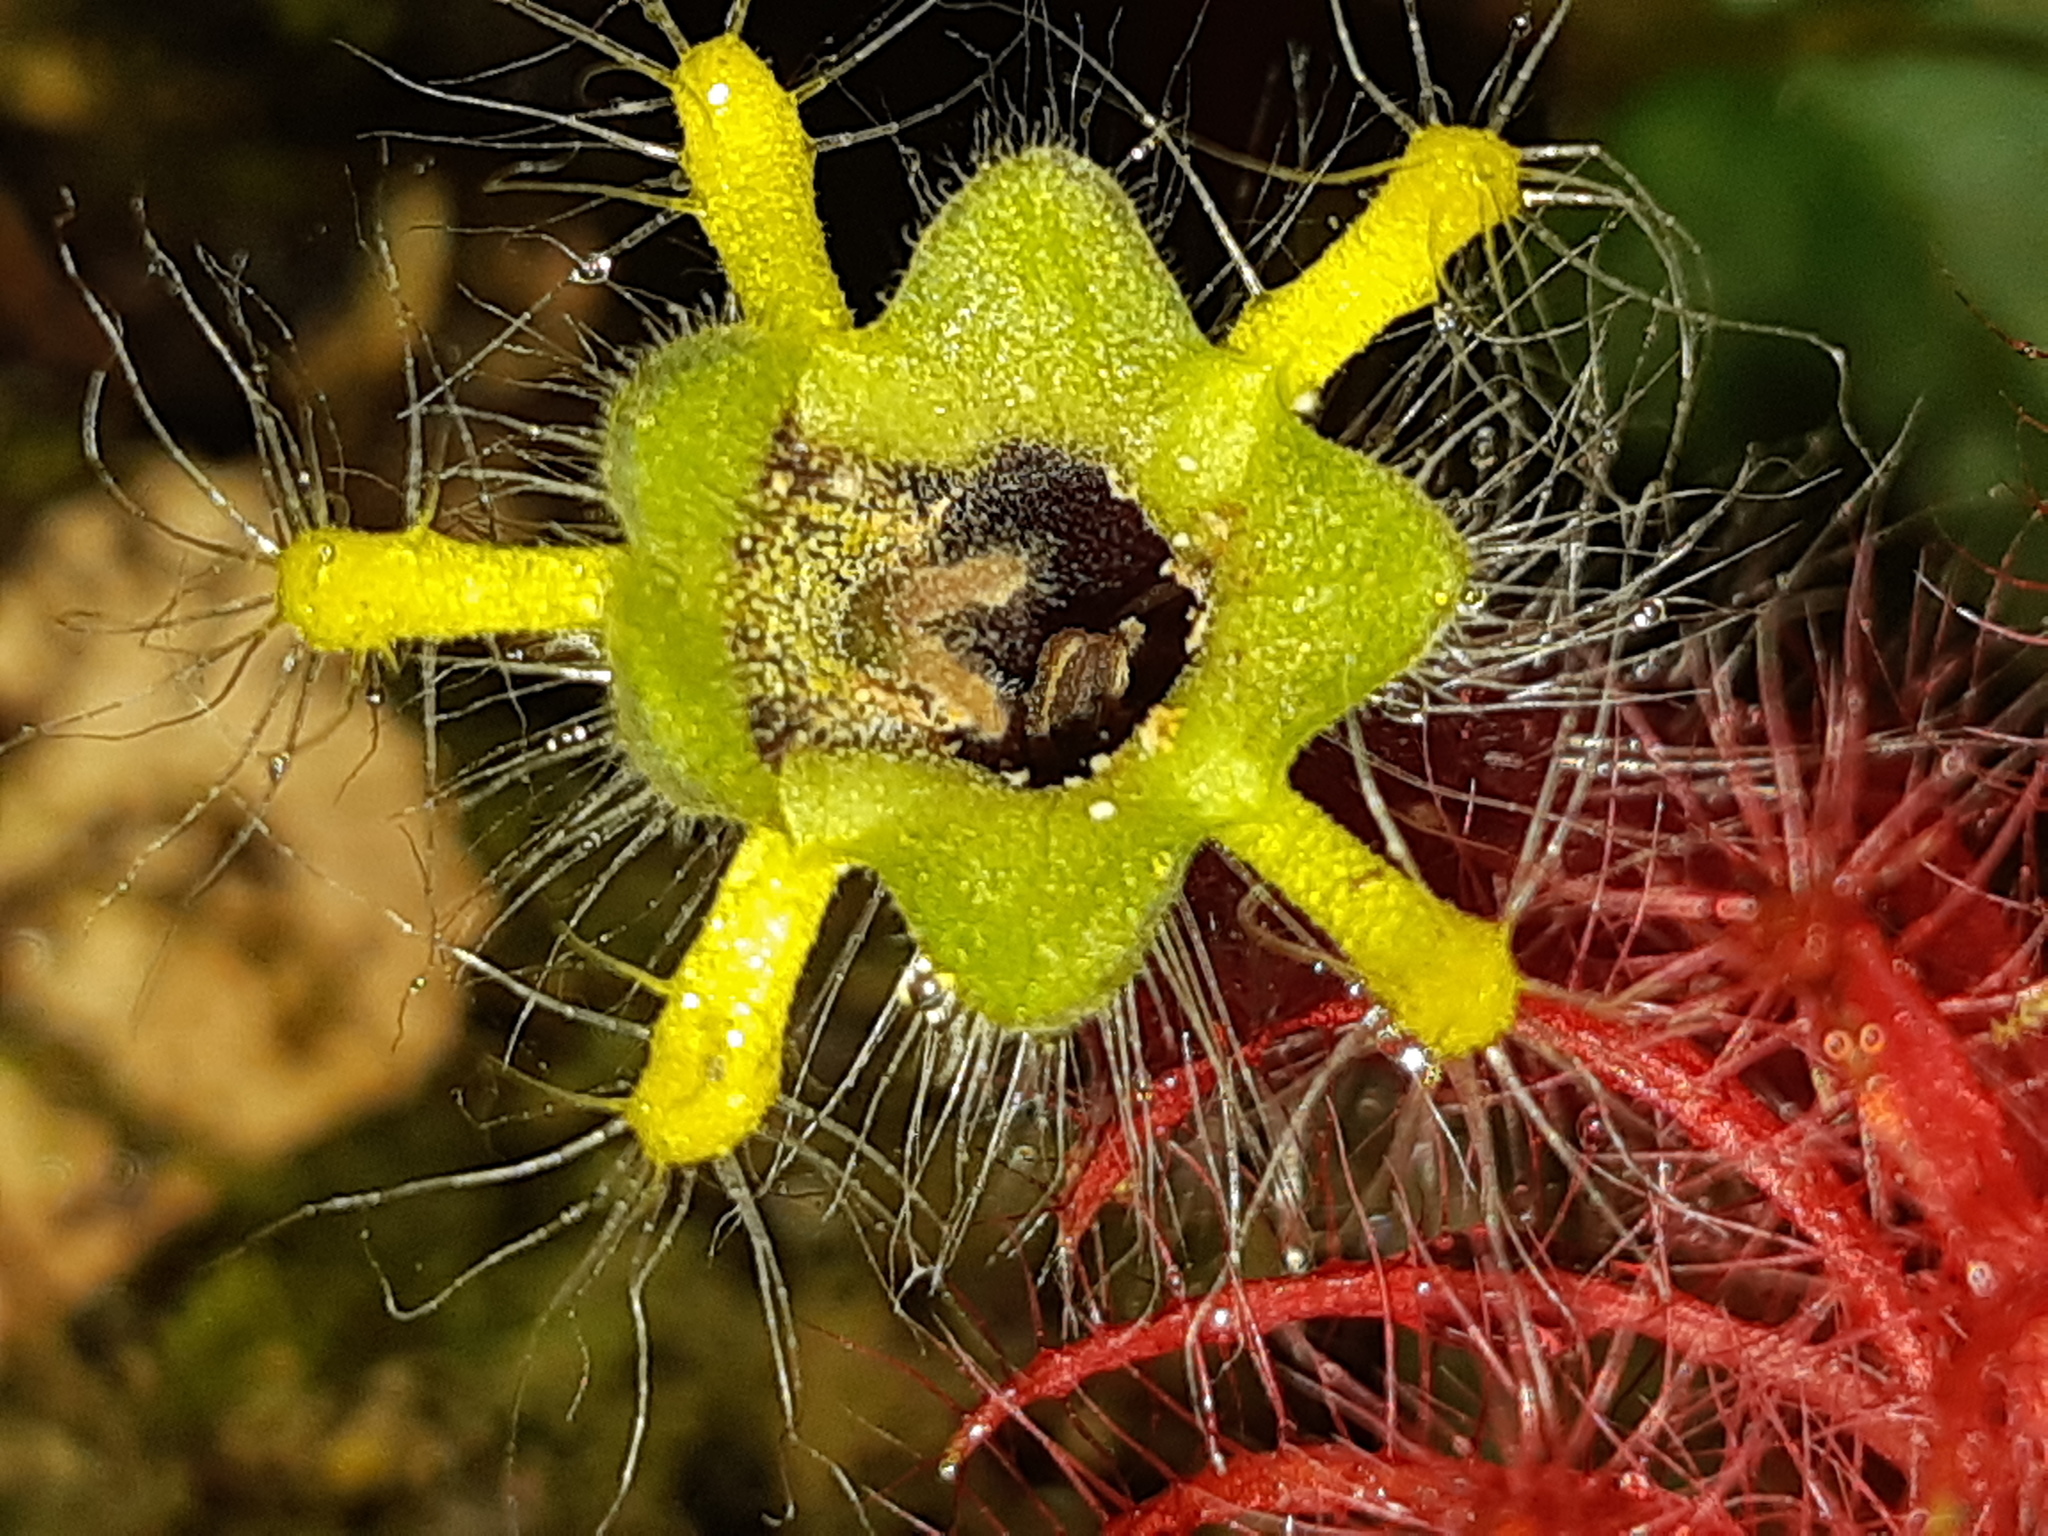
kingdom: Plantae
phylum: Tracheophyta
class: Magnoliopsida
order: Lamiales
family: Gesneriaceae
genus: Columnea
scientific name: Columnea minor
